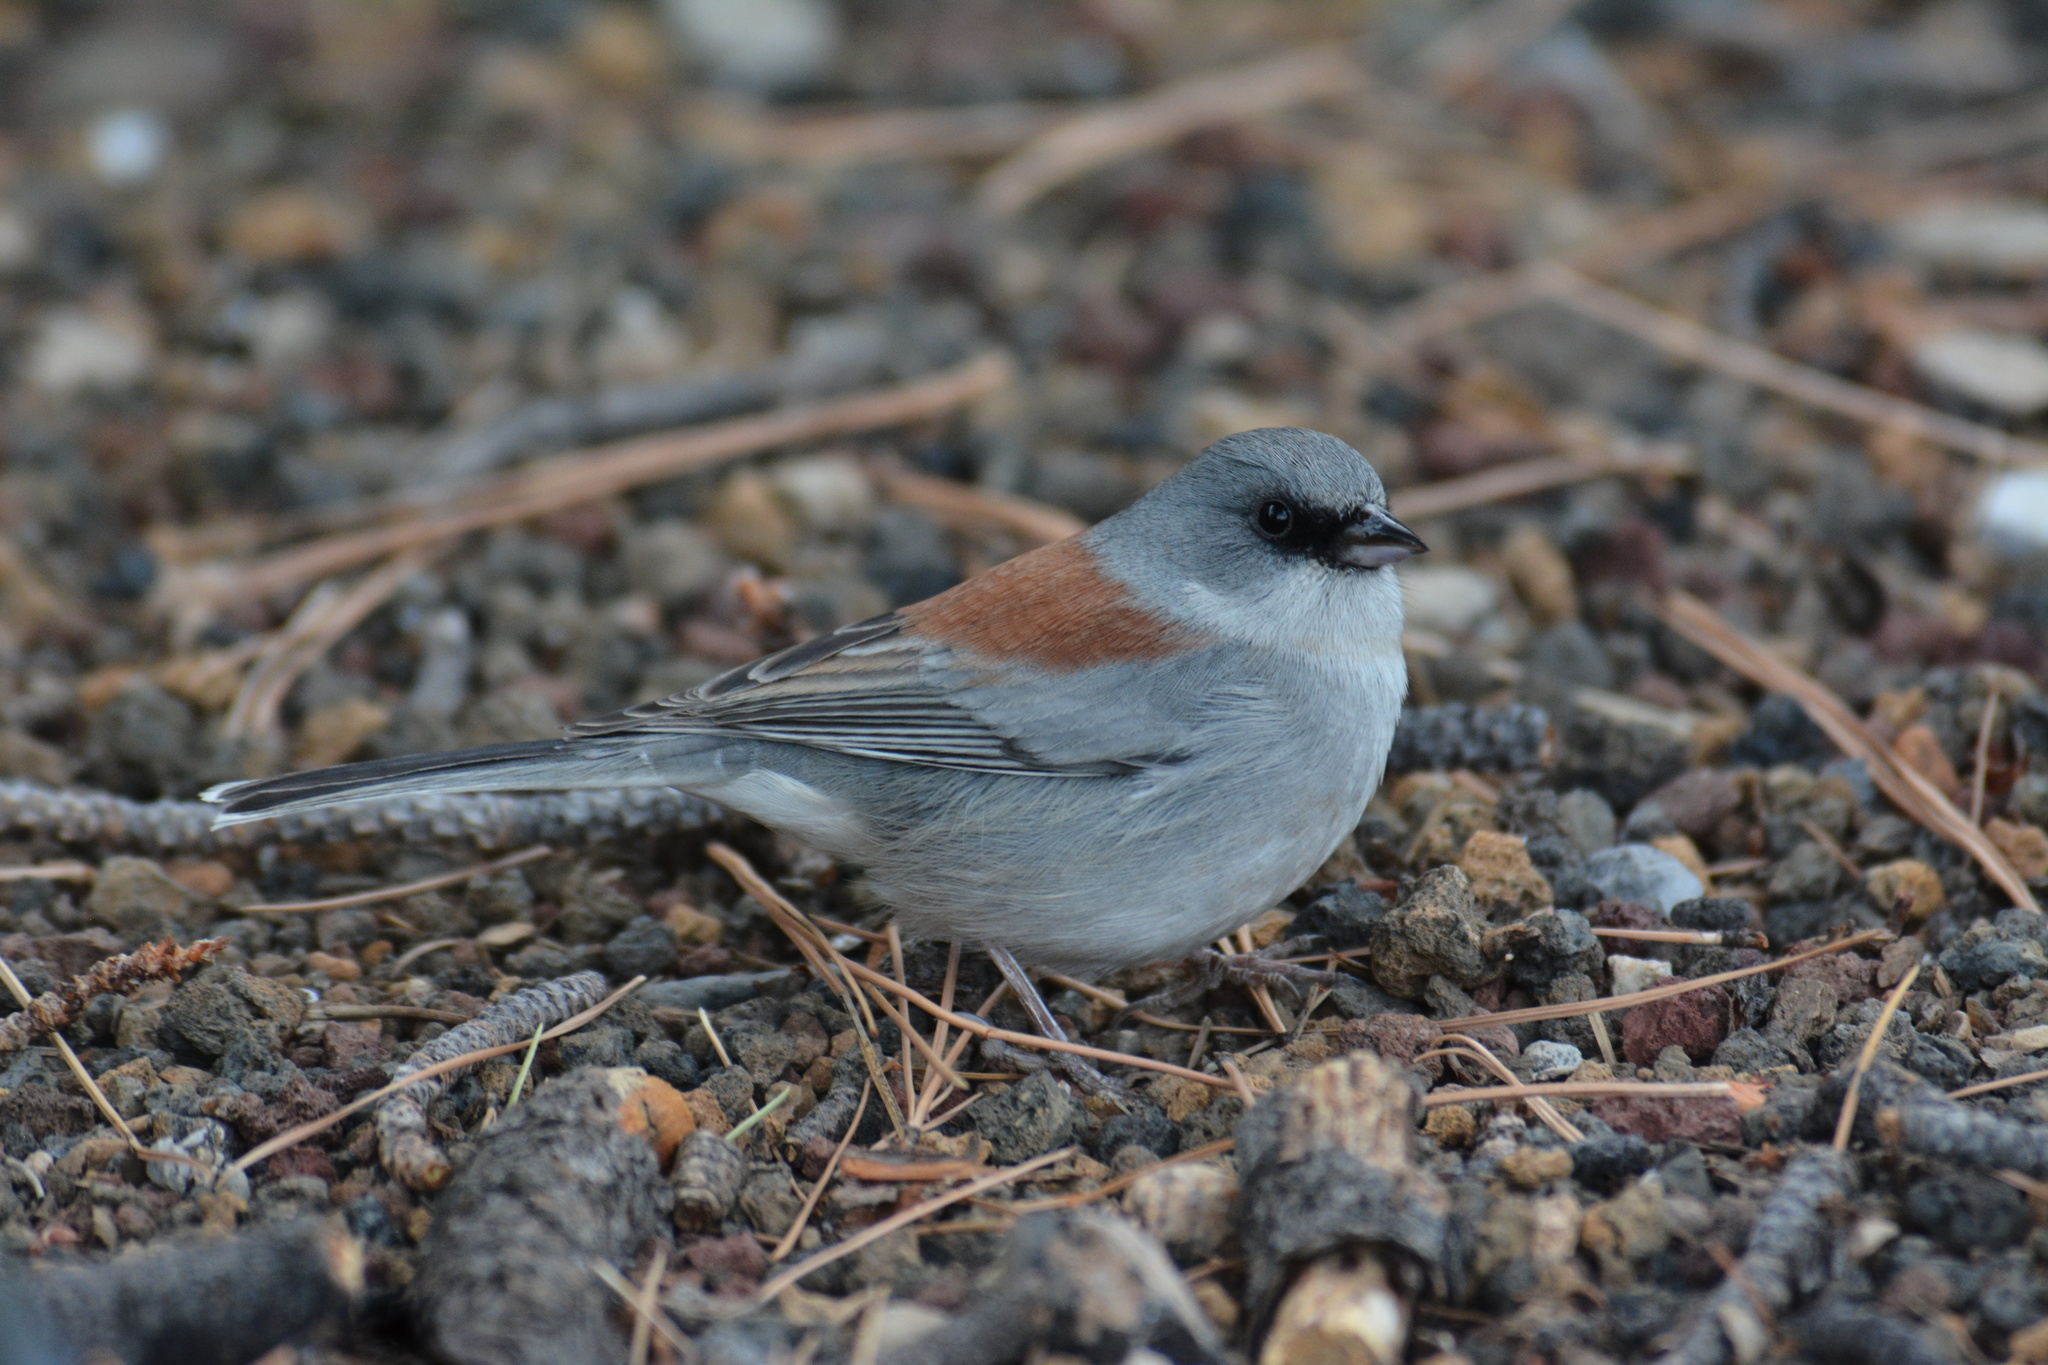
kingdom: Animalia
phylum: Chordata
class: Aves
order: Passeriformes
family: Passerellidae
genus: Junco
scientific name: Junco hyemalis
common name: Dark-eyed junco
